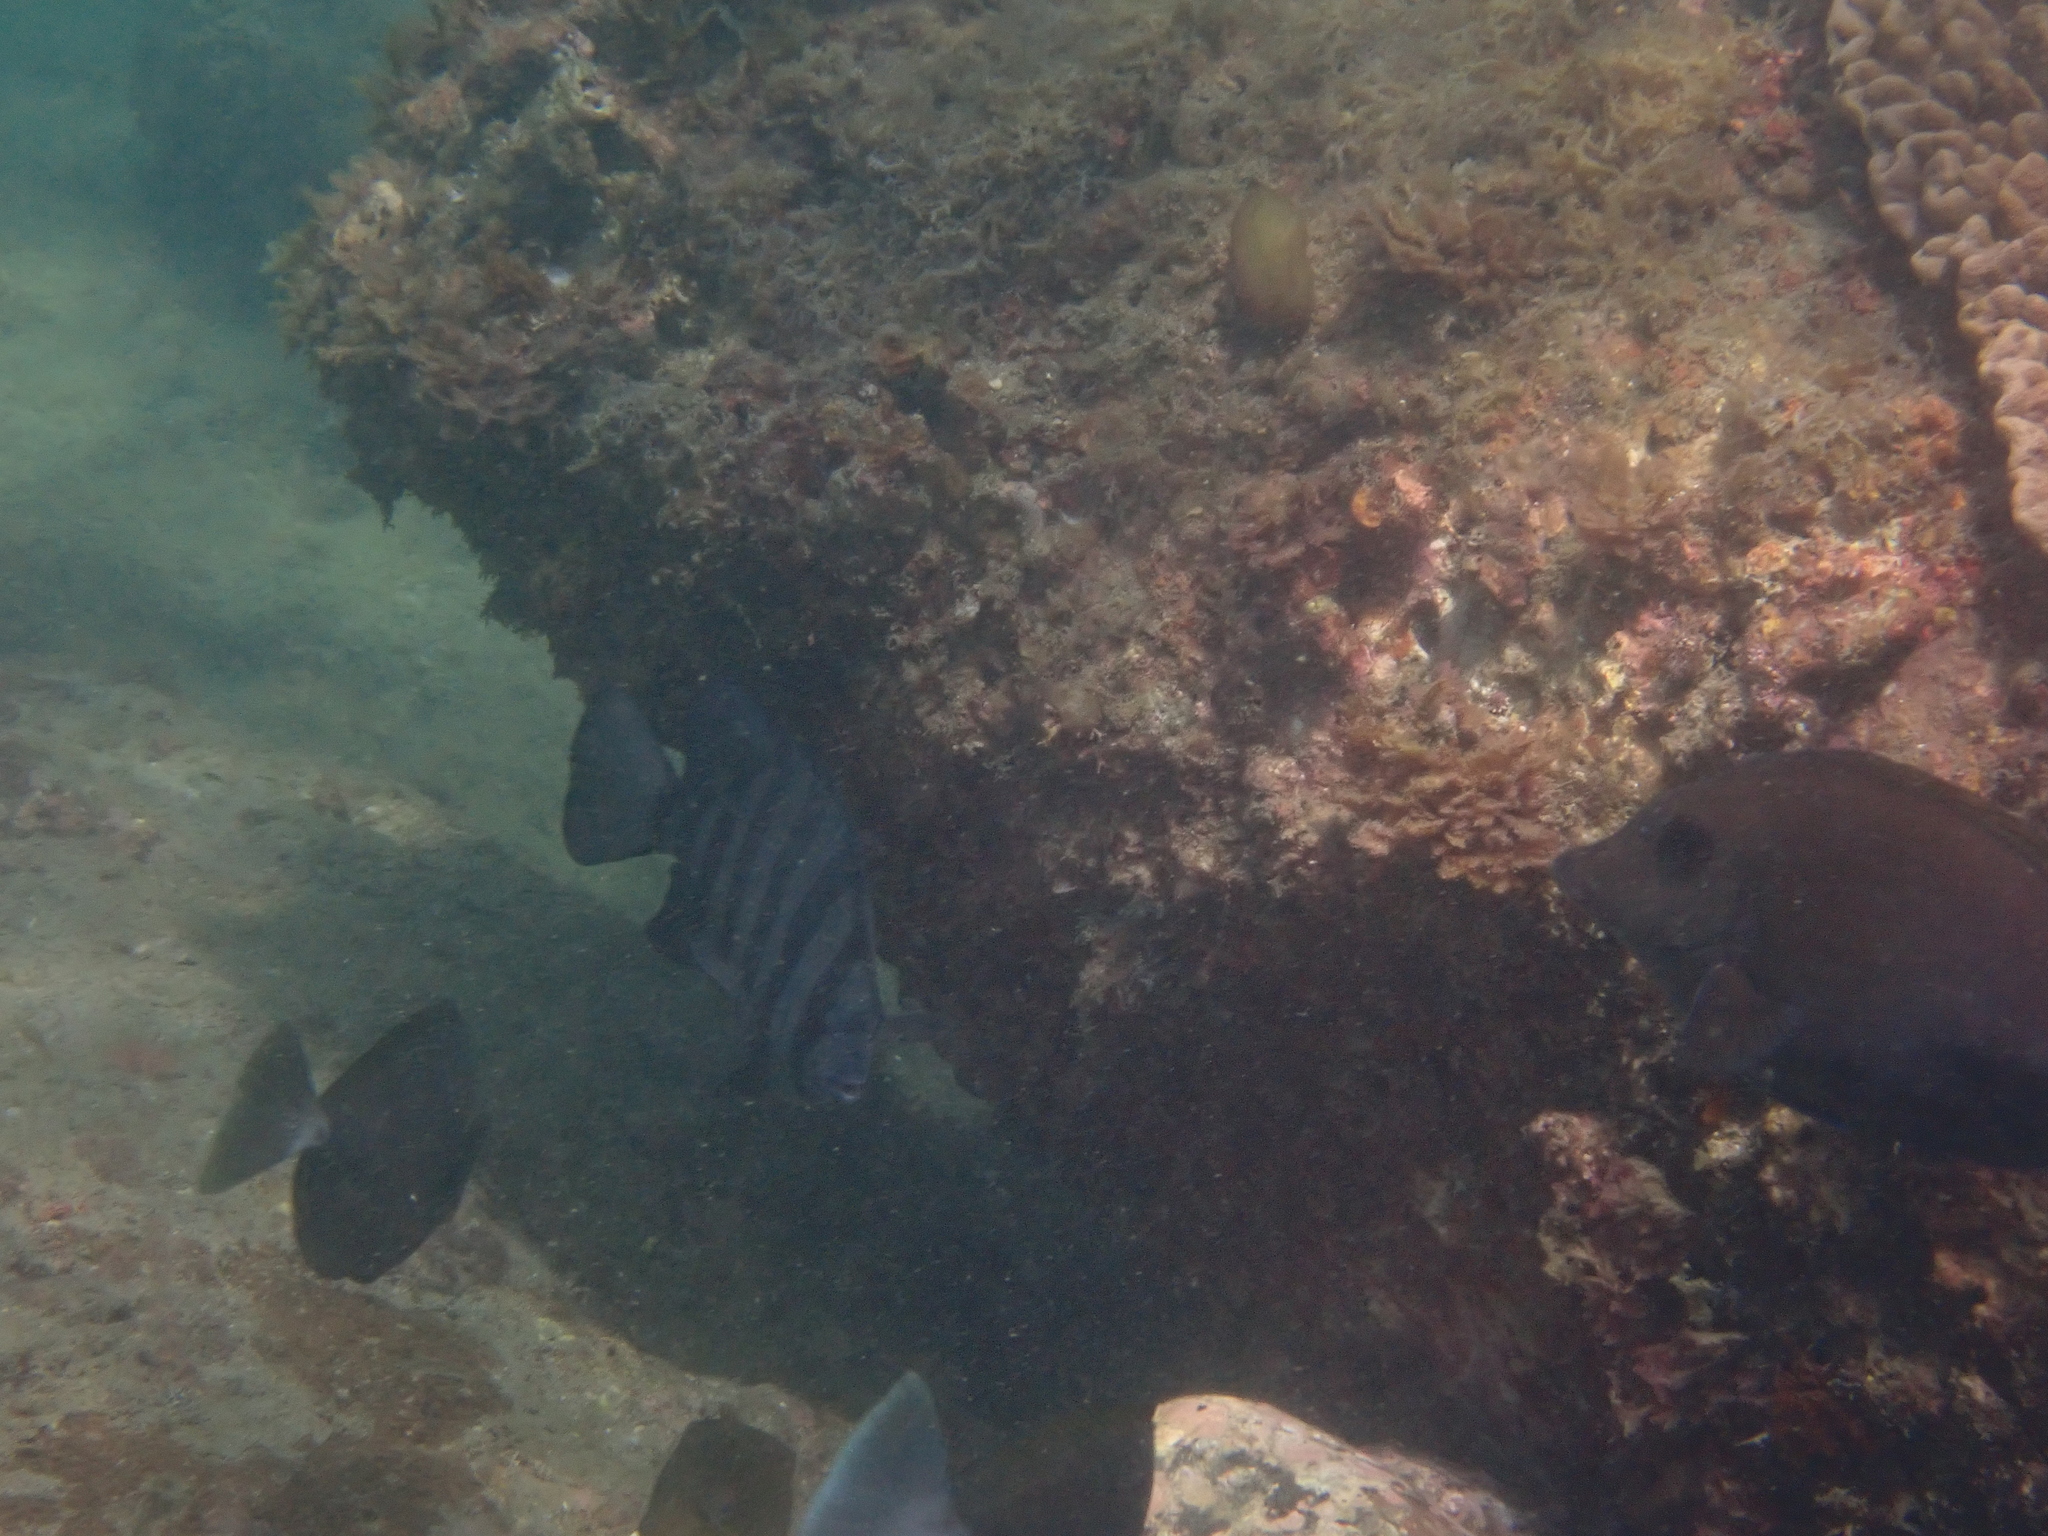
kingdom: Animalia
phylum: Chordata
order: Perciformes
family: Oplegnathidae
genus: Oplegnathus
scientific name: Oplegnathus fasciatus
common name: Barred knifejaw
